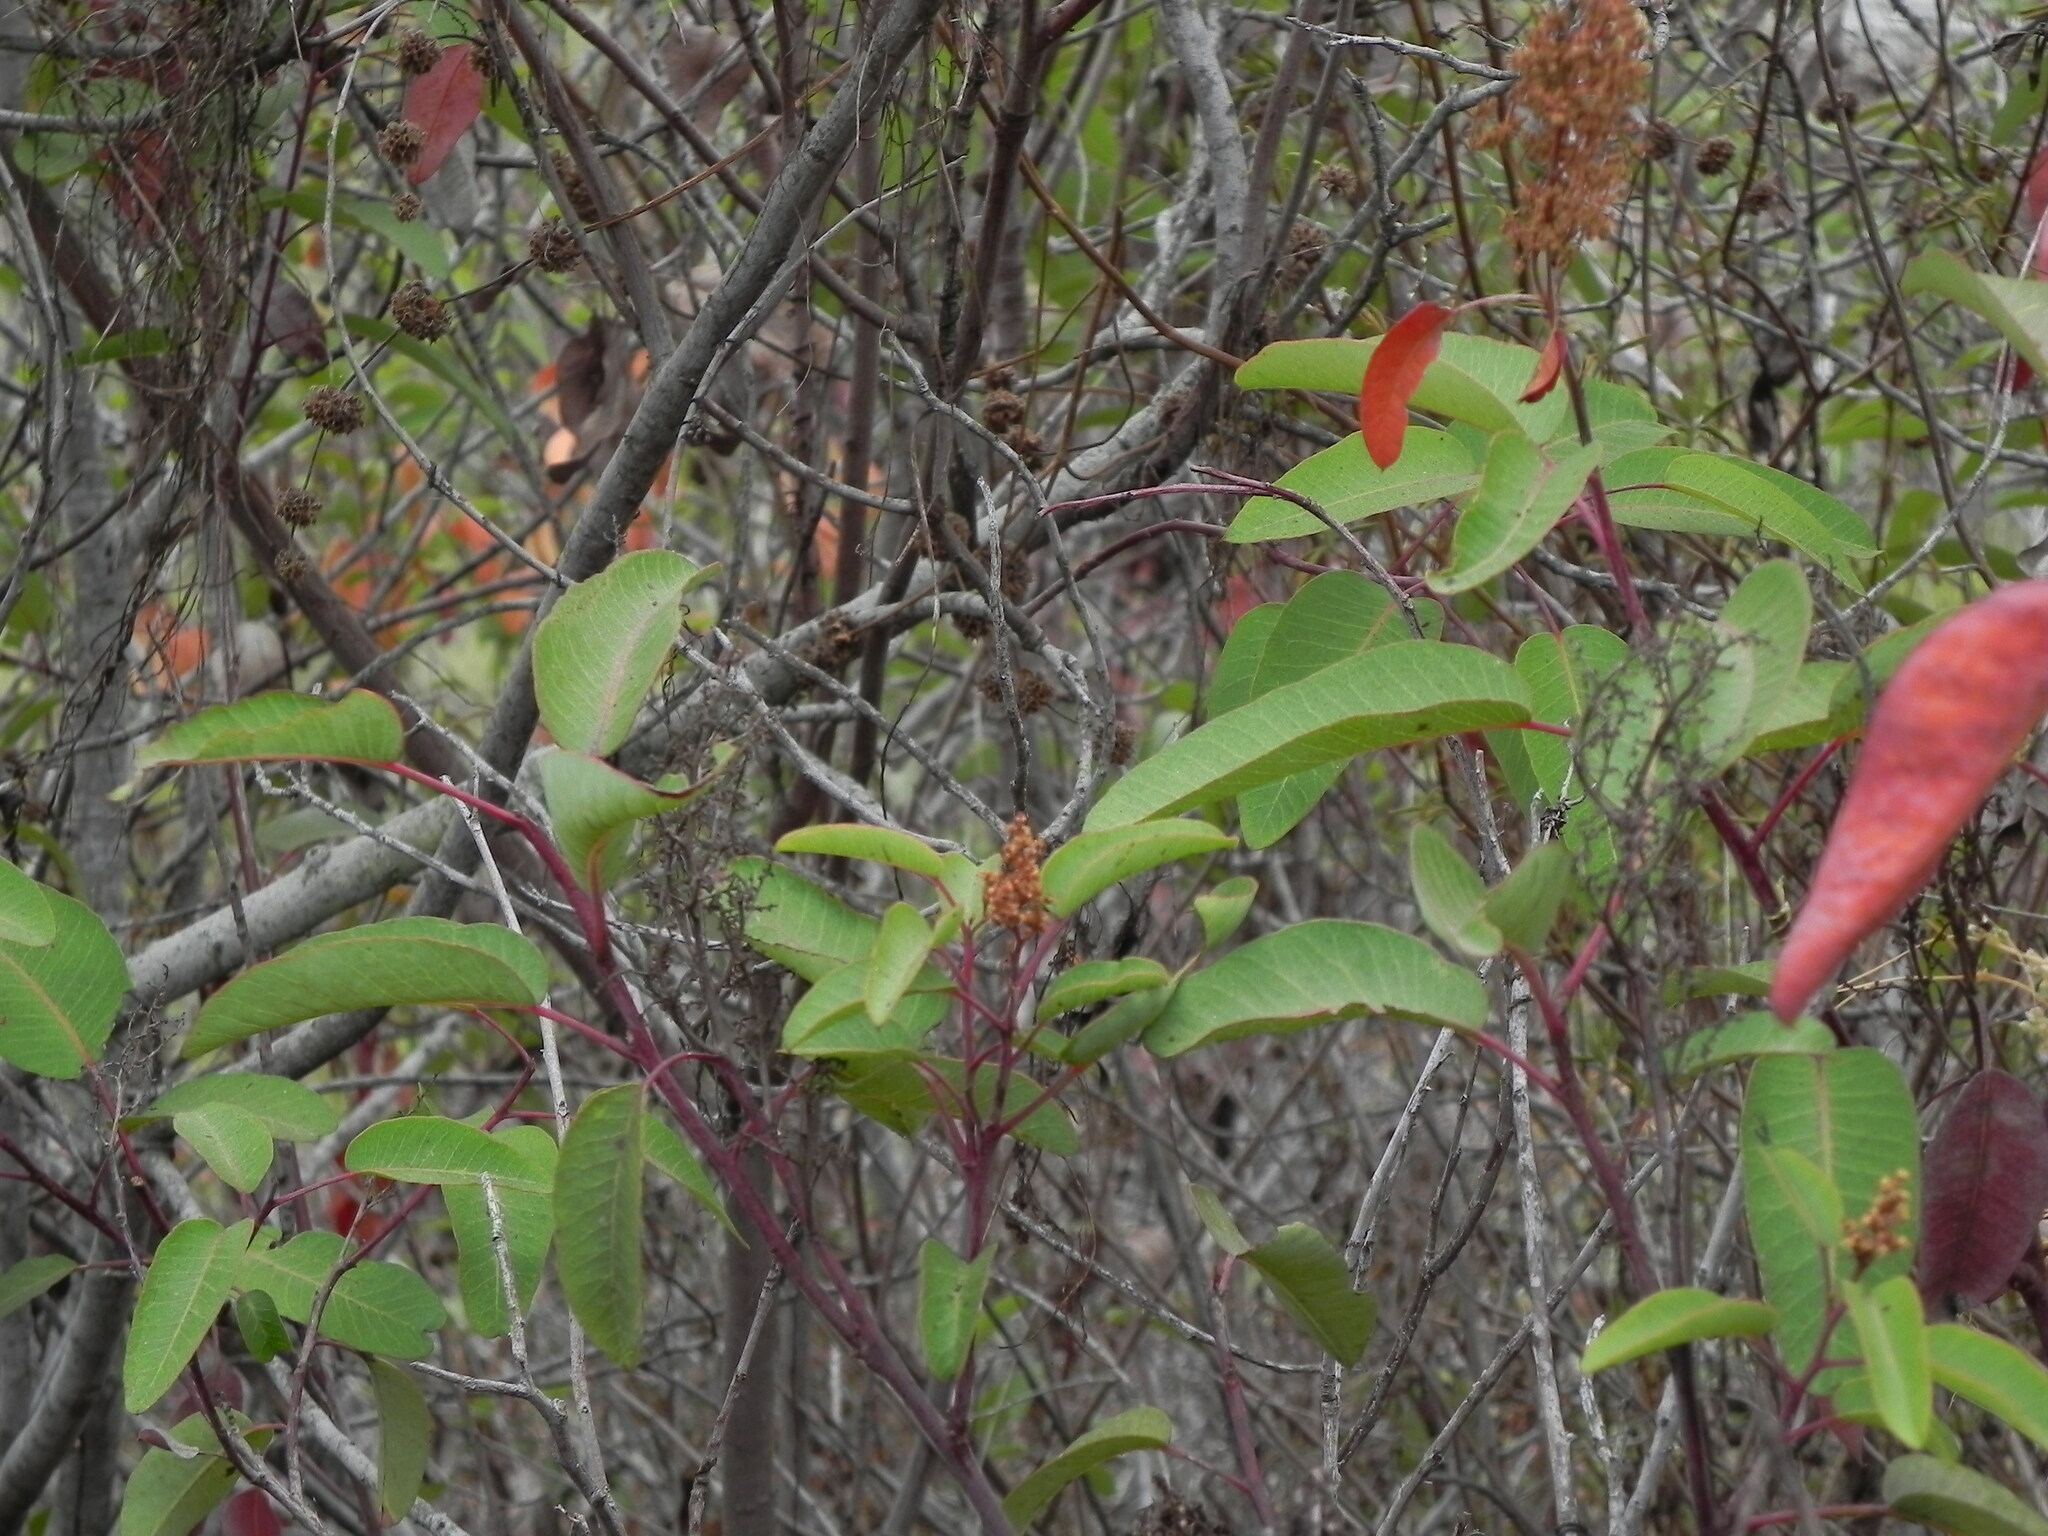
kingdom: Plantae
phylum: Tracheophyta
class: Magnoliopsida
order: Sapindales
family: Anacardiaceae
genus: Malosma
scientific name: Malosma laurina
